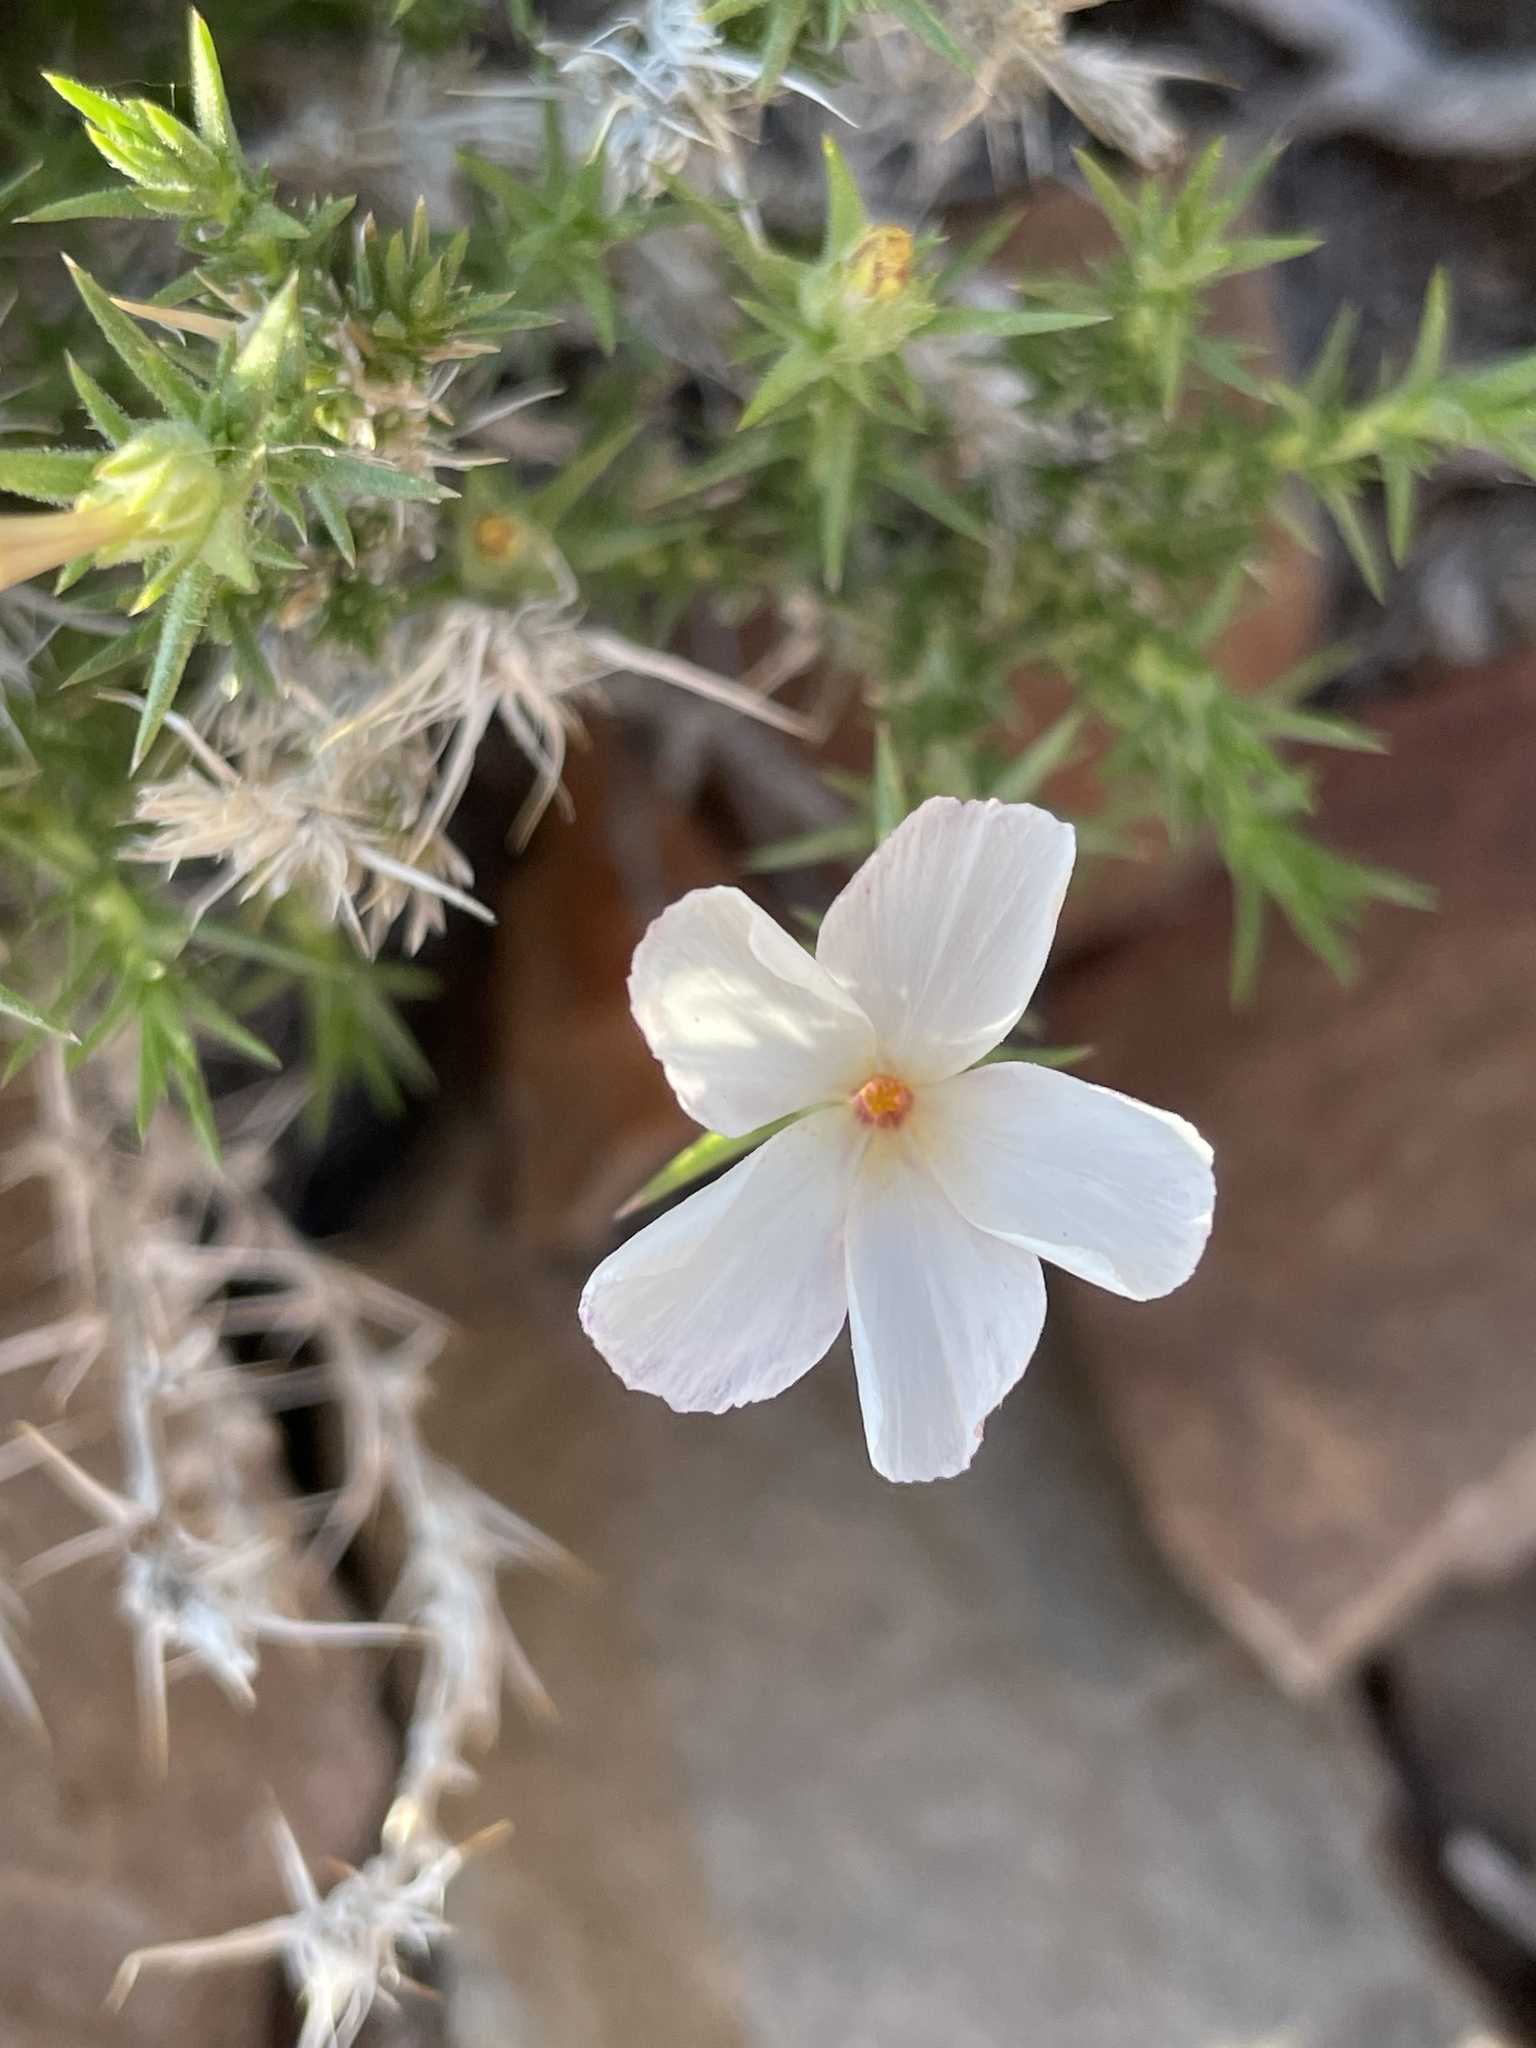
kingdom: Plantae
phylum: Tracheophyta
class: Magnoliopsida
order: Ericales
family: Polemoniaceae
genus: Linanthus
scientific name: Linanthus pungens
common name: Granite prickly phlox
